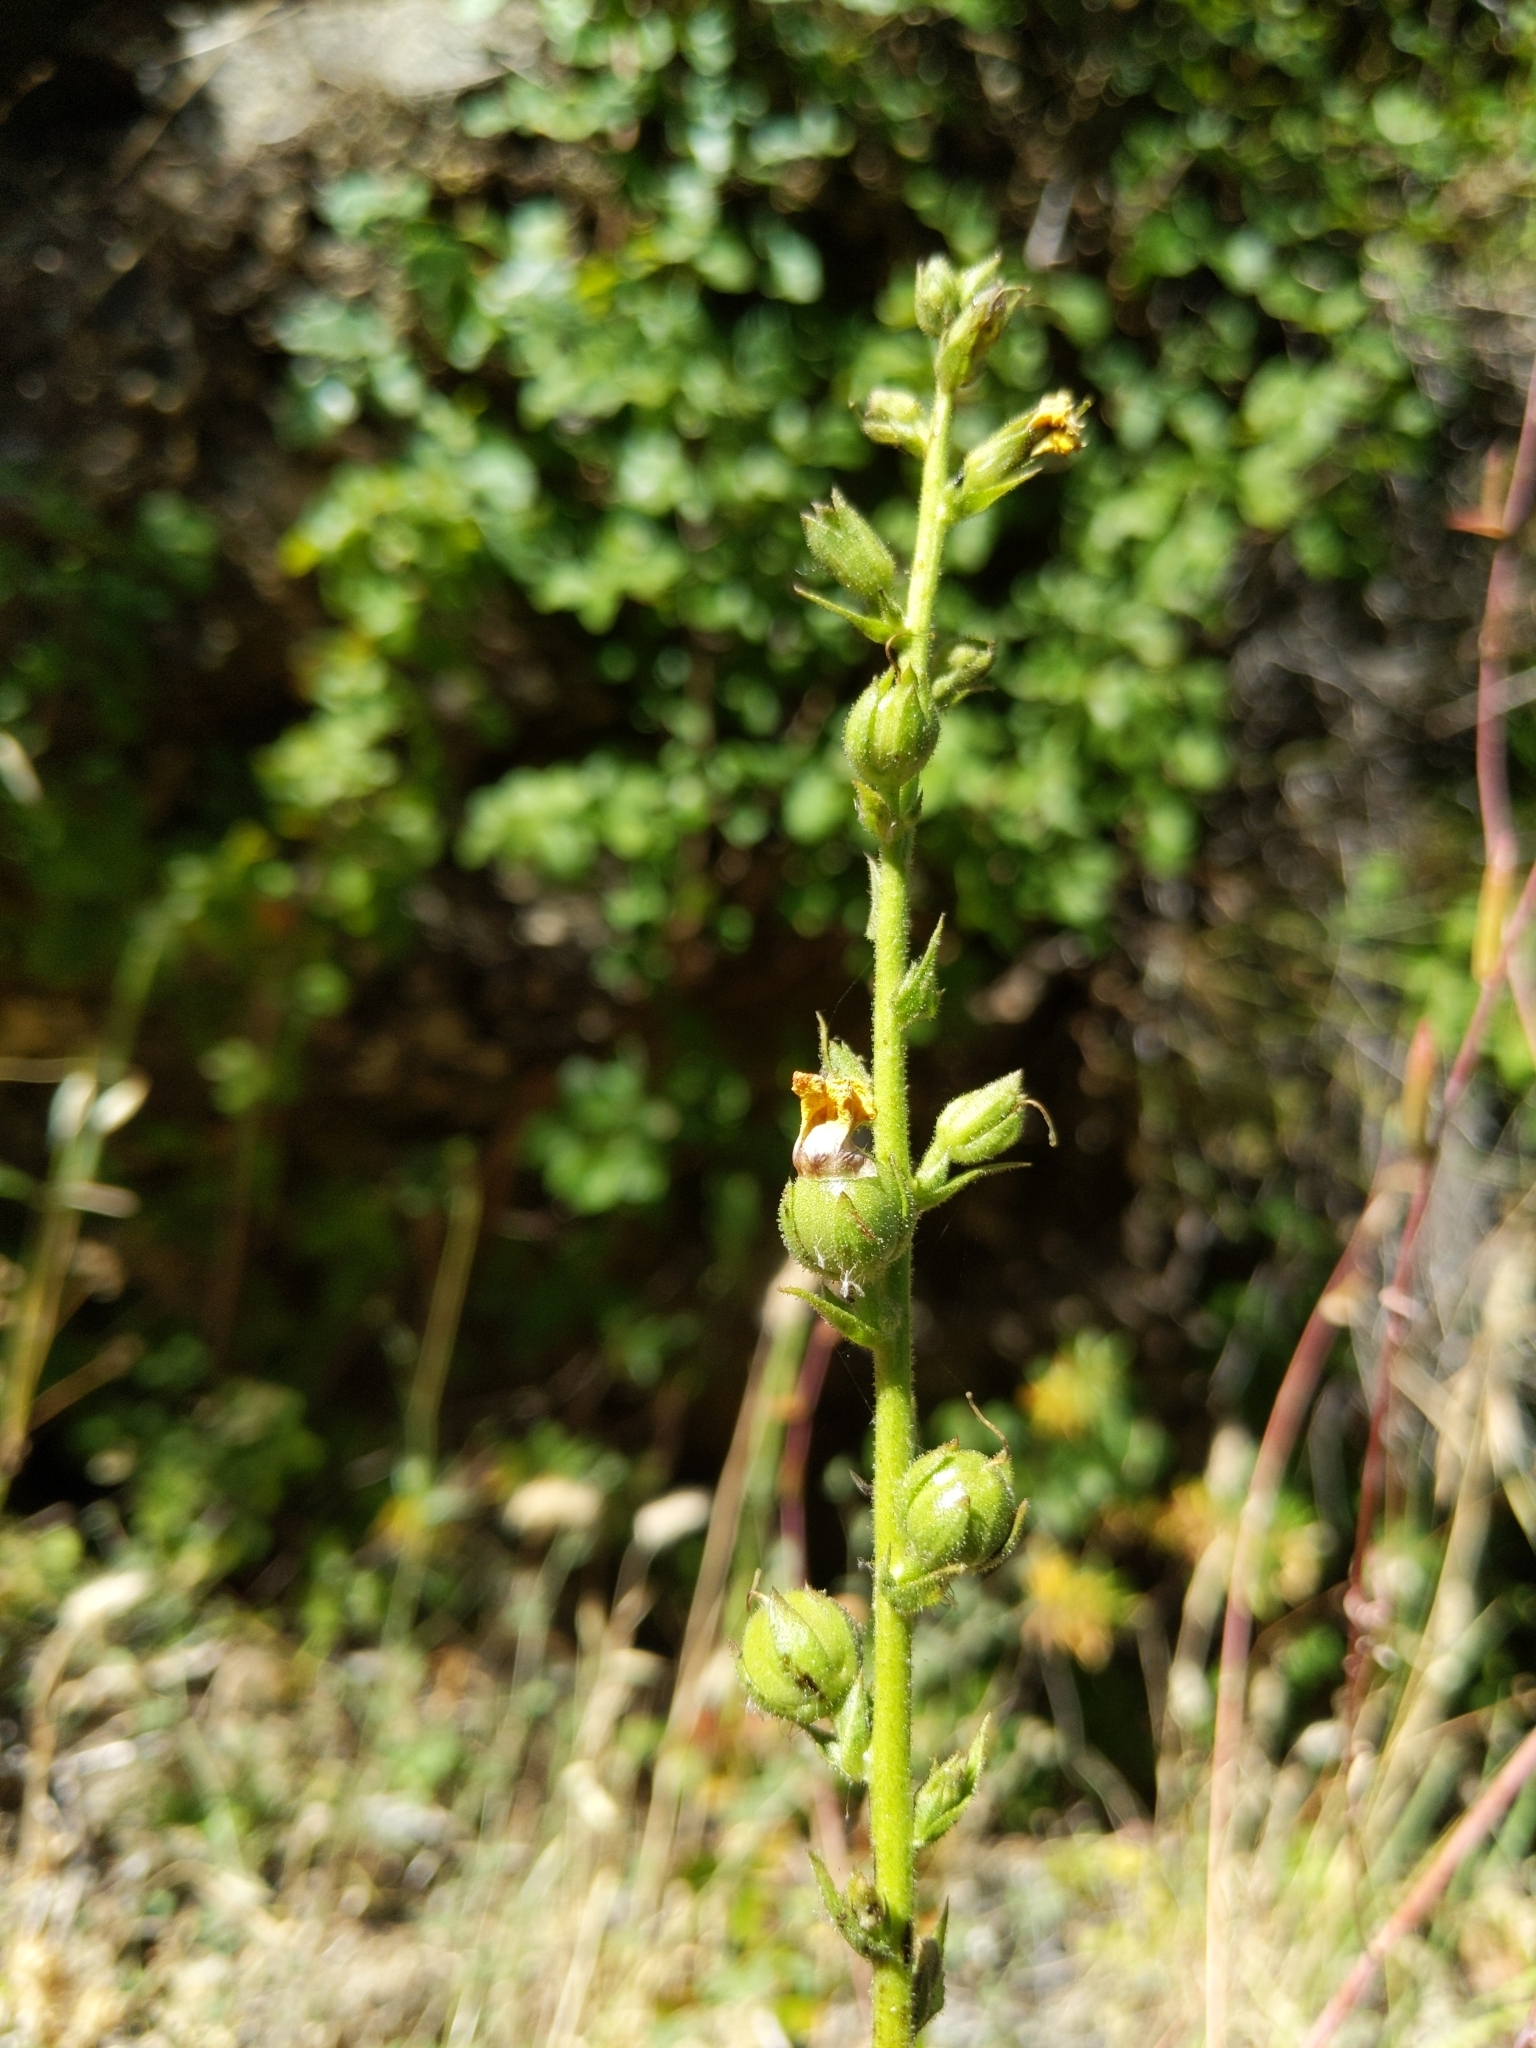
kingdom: Plantae
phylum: Tracheophyta
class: Magnoliopsida
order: Lamiales
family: Scrophulariaceae
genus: Verbascum
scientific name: Verbascum virgatum
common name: Twiggy mullein
